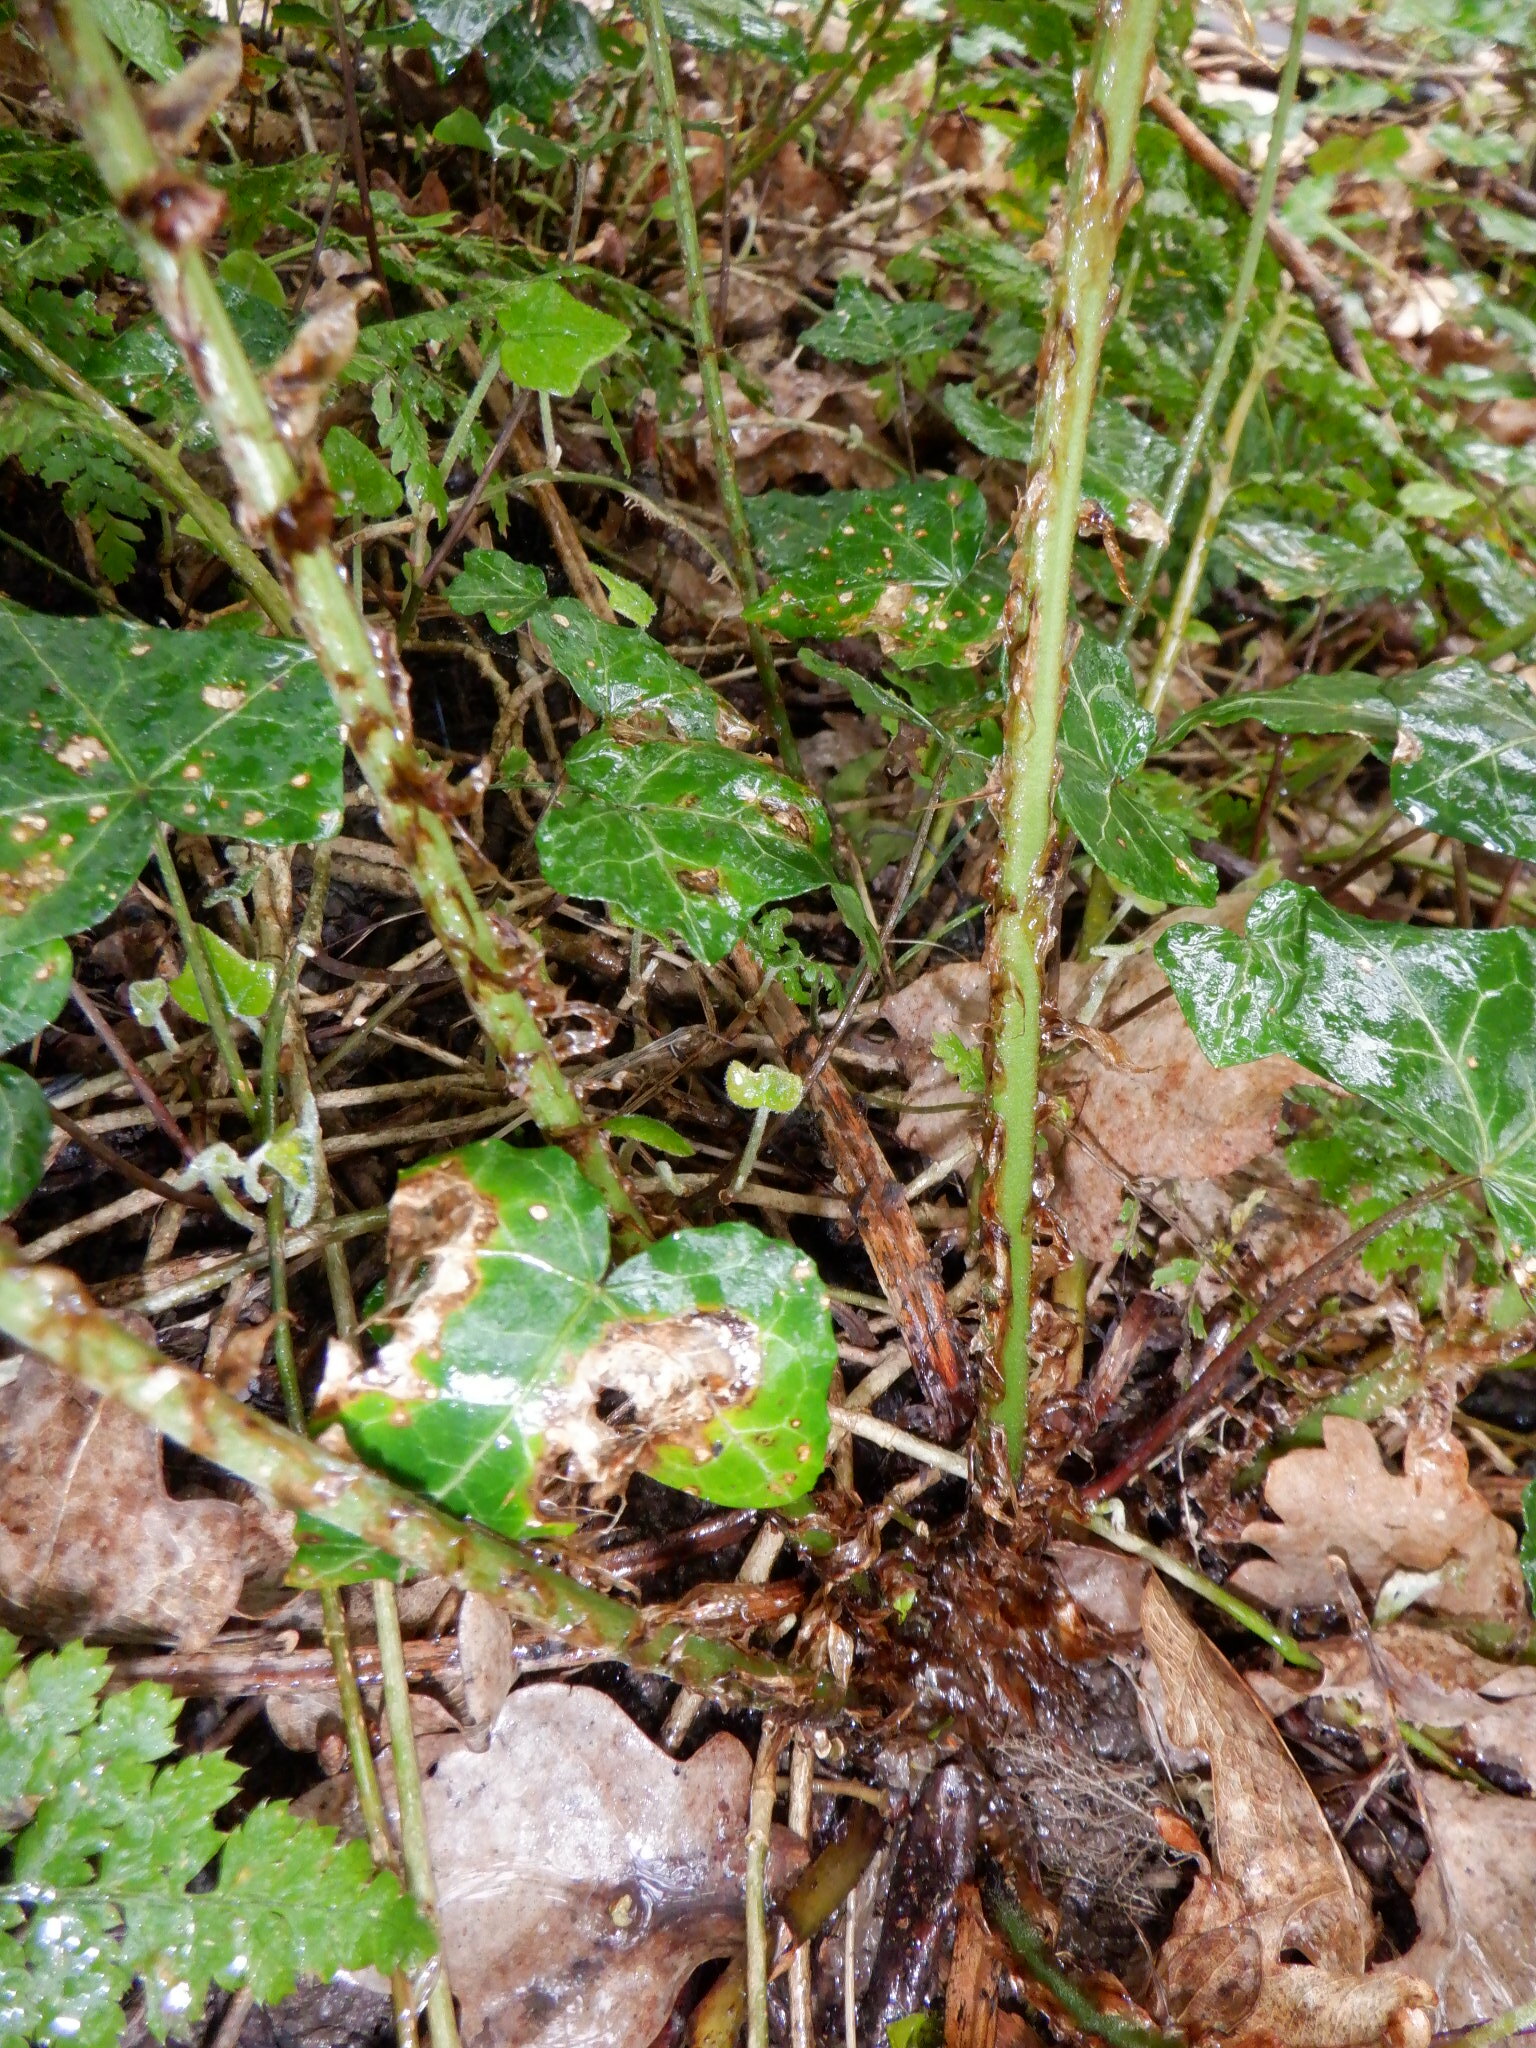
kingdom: Plantae
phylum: Tracheophyta
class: Polypodiopsida
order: Polypodiales
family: Dryopteridaceae
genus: Dryopteris
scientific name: Dryopteris dilatata
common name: Broad buckler-fern
